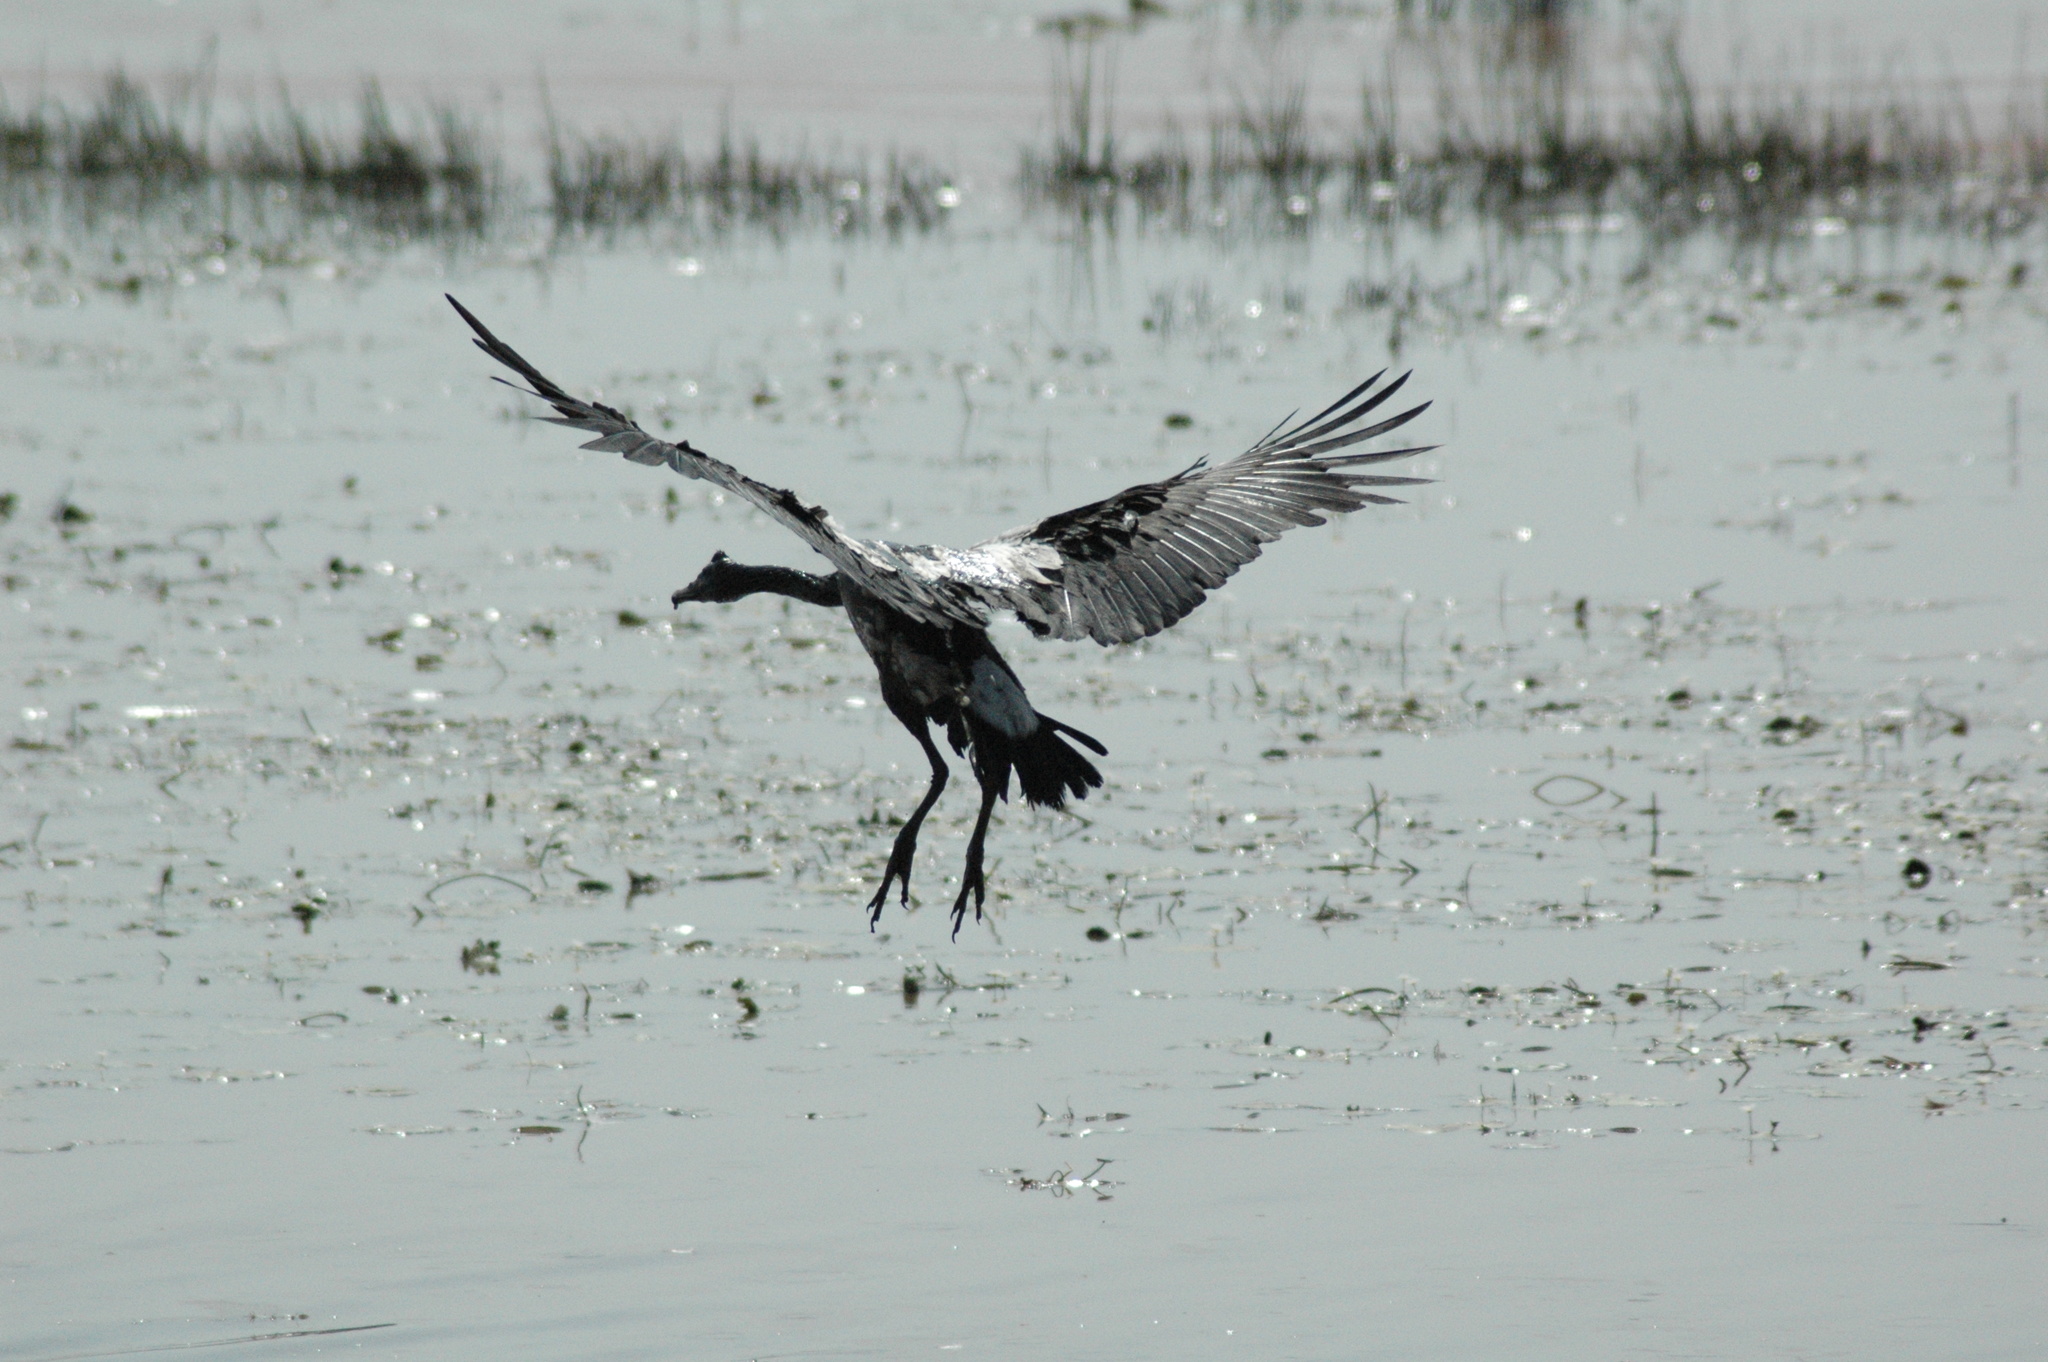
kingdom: Animalia
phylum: Chordata
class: Aves
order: Anseriformes
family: Anseranatidae
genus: Anseranas
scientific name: Anseranas semipalmata
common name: Magpie goose
